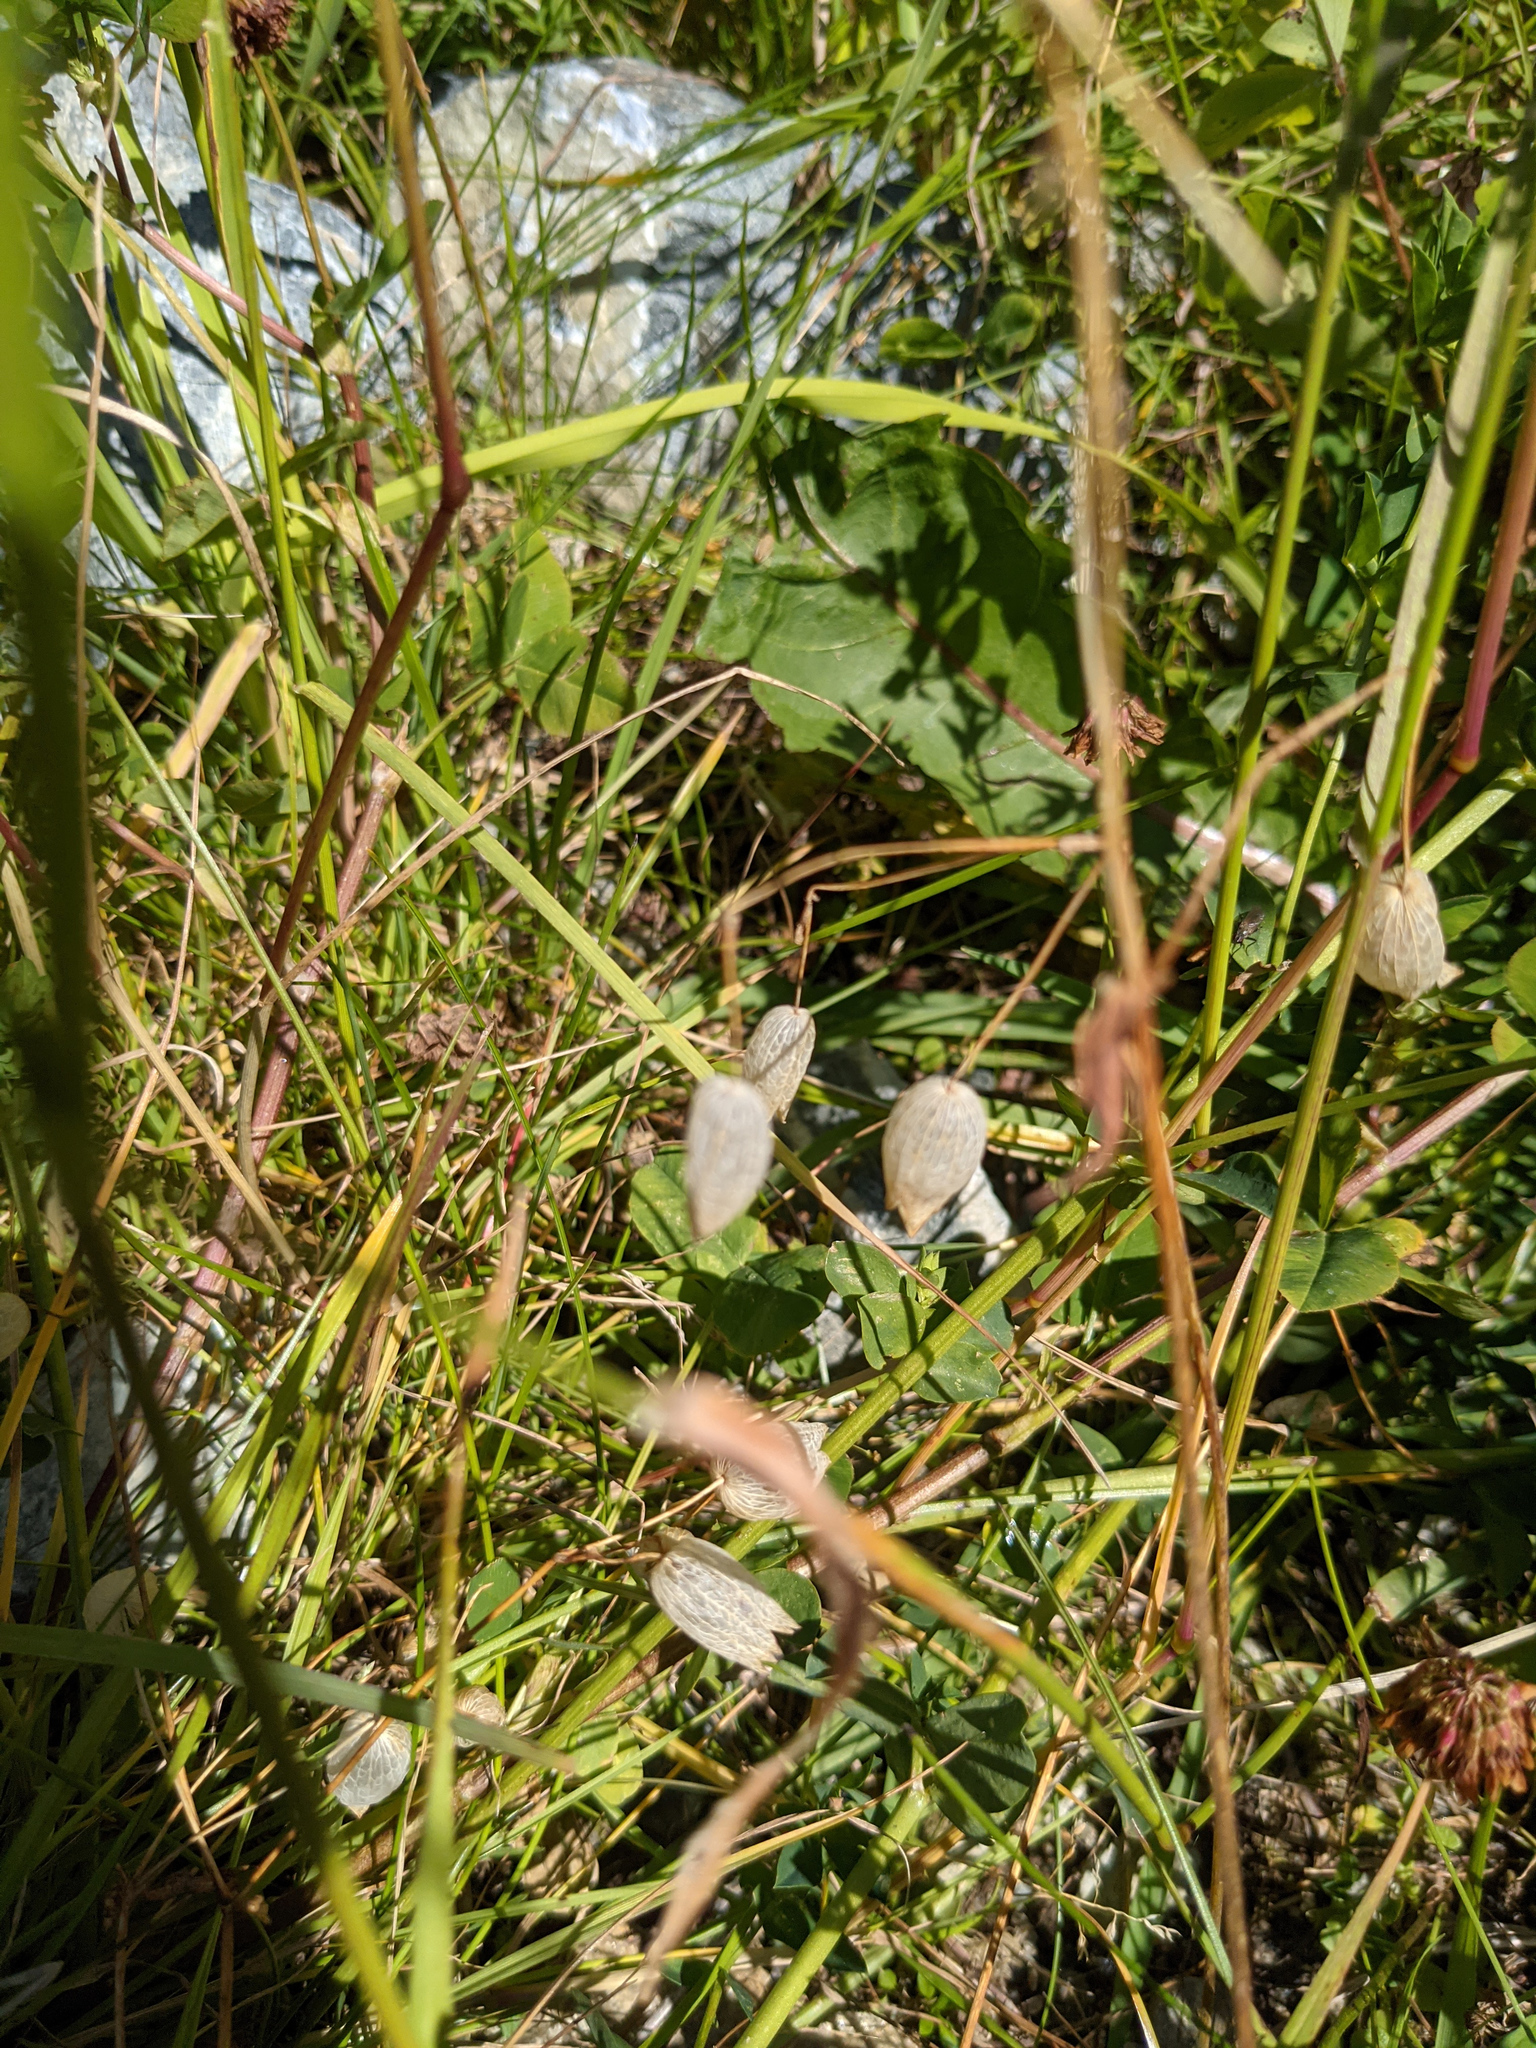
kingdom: Plantae
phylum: Tracheophyta
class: Magnoliopsida
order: Caryophyllales
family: Caryophyllaceae
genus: Silene
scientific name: Silene vulgaris
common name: Bladder campion
